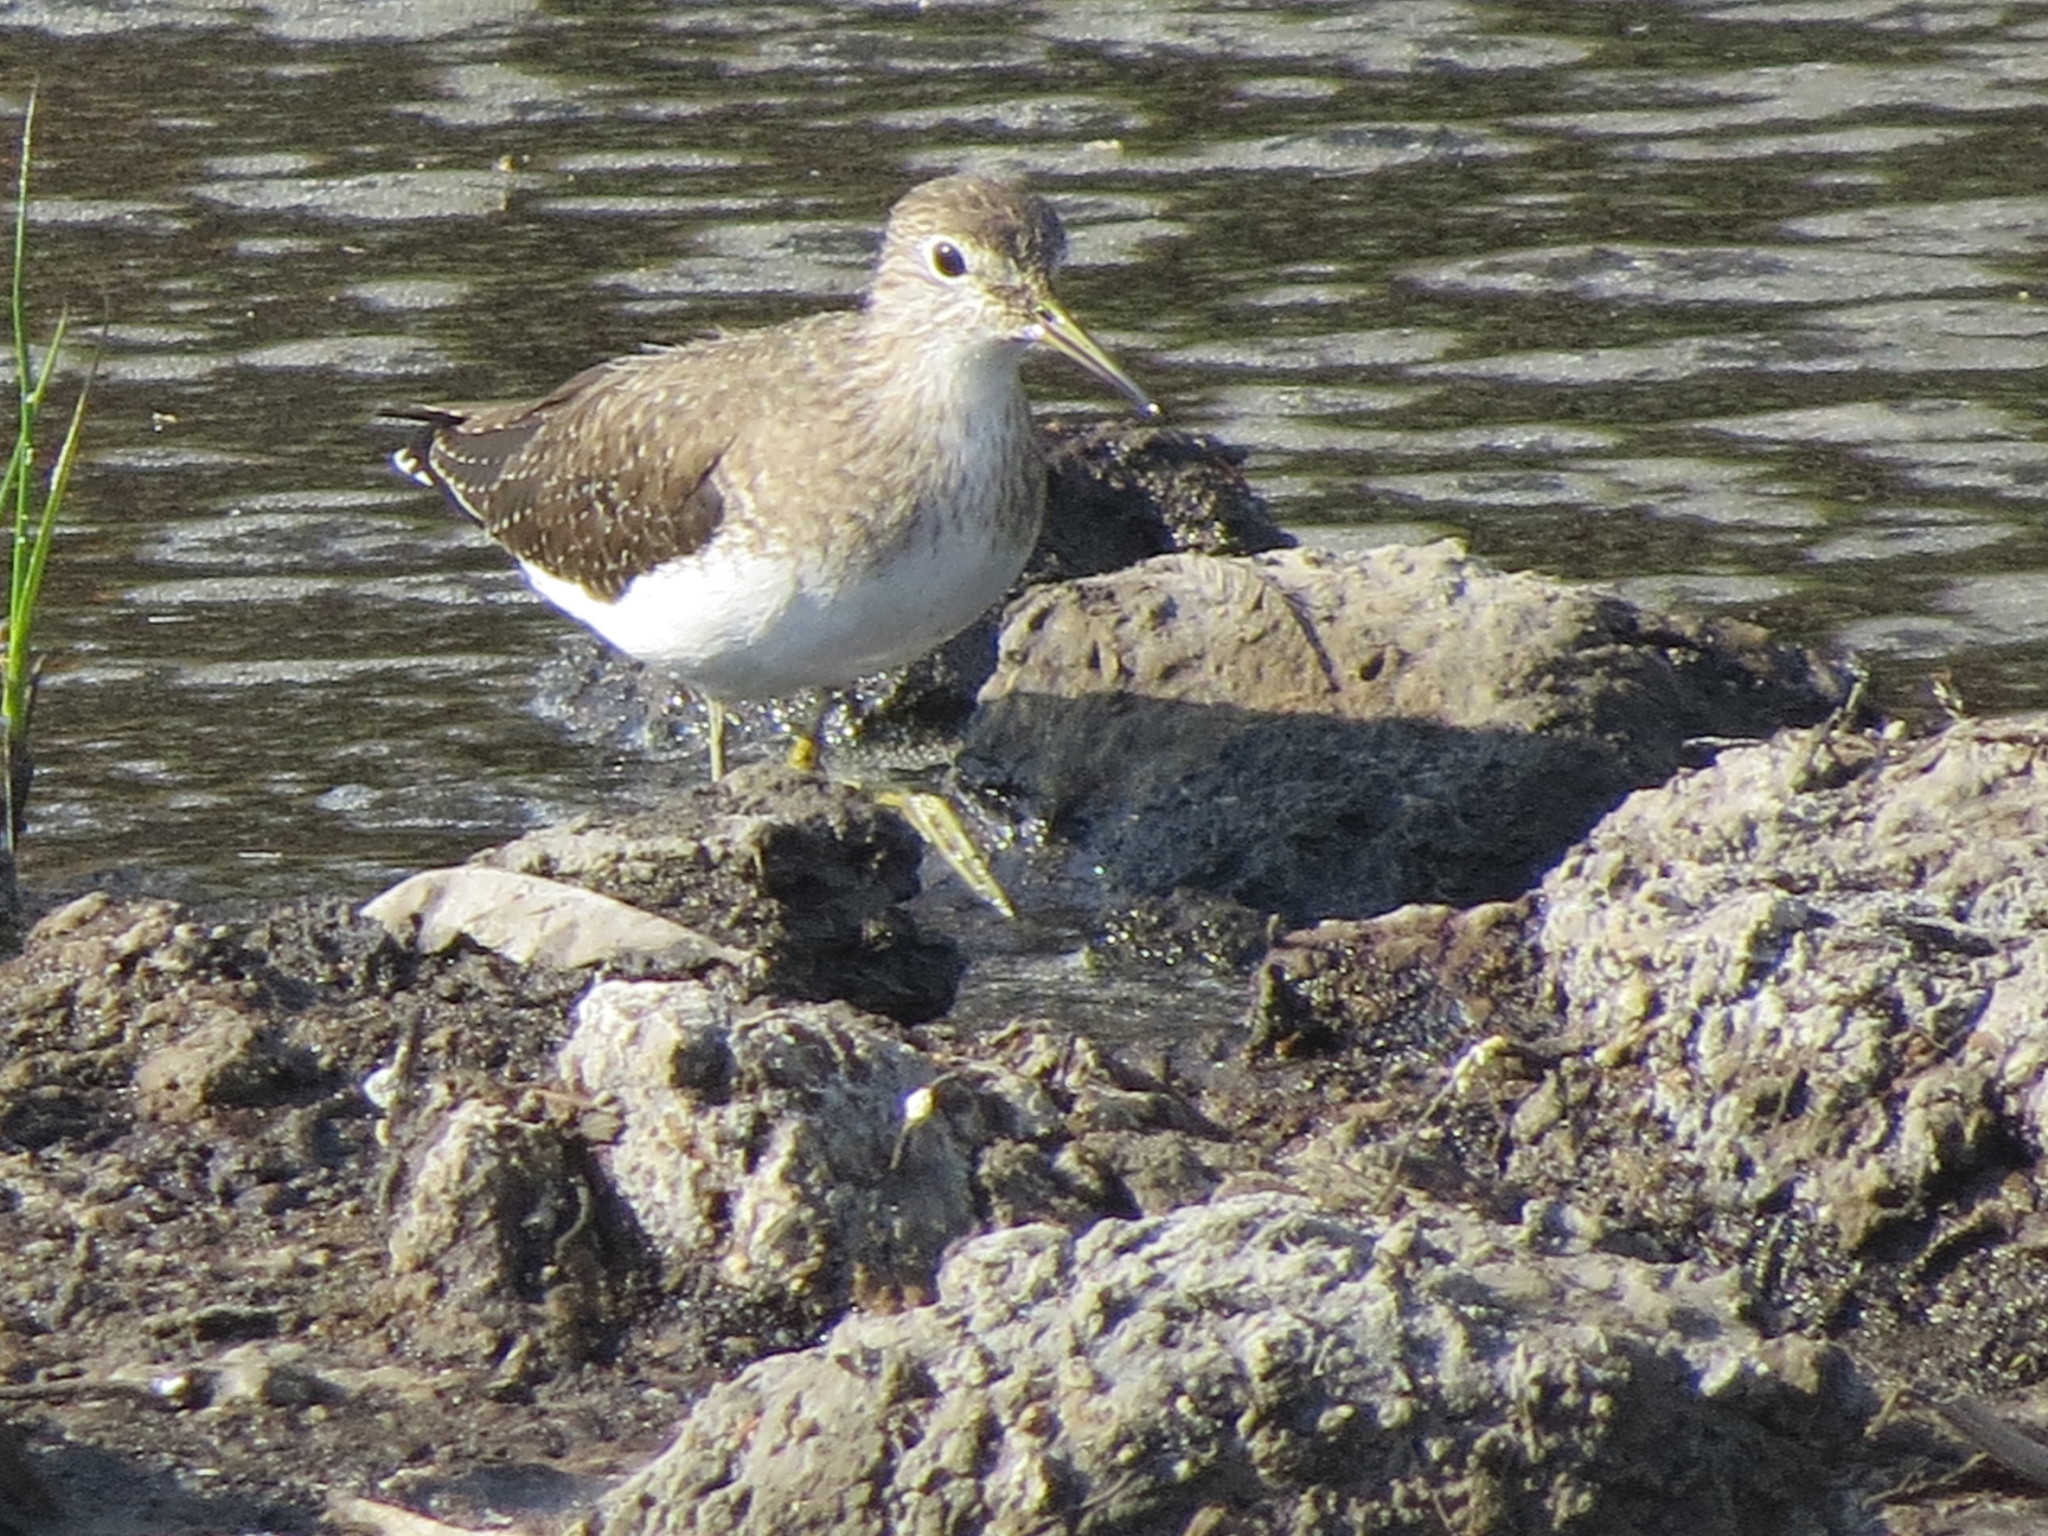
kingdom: Animalia
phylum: Chordata
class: Aves
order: Charadriiformes
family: Scolopacidae
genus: Tringa
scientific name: Tringa solitaria
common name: Solitary sandpiper
